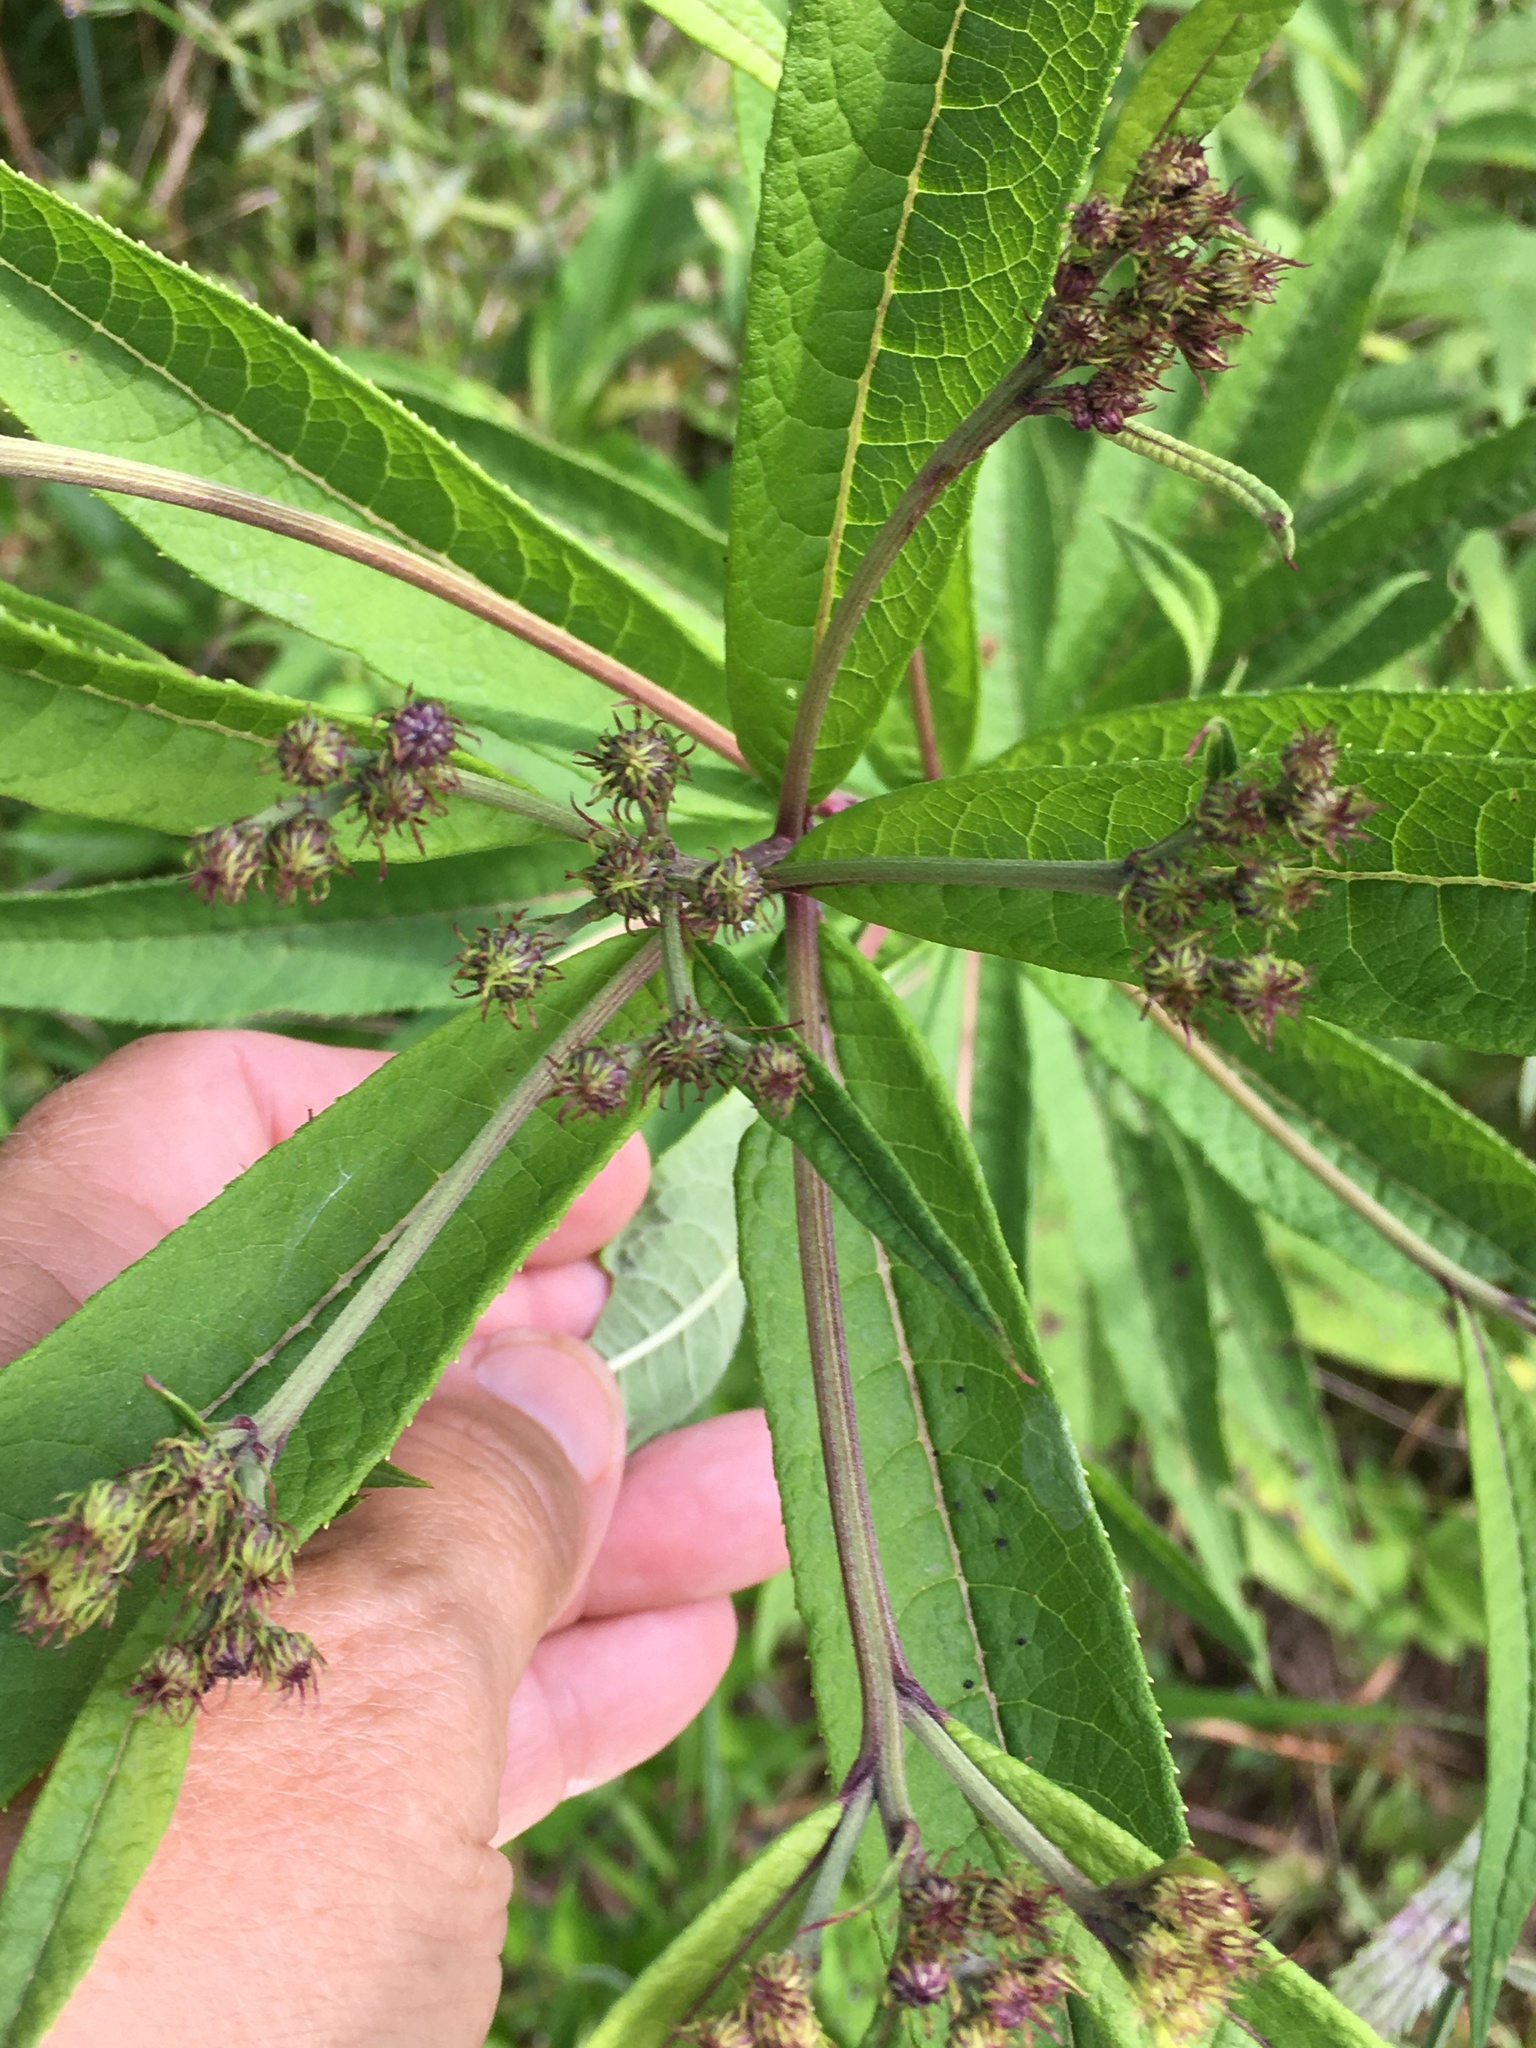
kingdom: Plantae
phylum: Tracheophyta
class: Magnoliopsida
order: Asterales
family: Asteraceae
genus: Vernonia
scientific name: Vernonia noveboracensis
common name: New york ironweed
